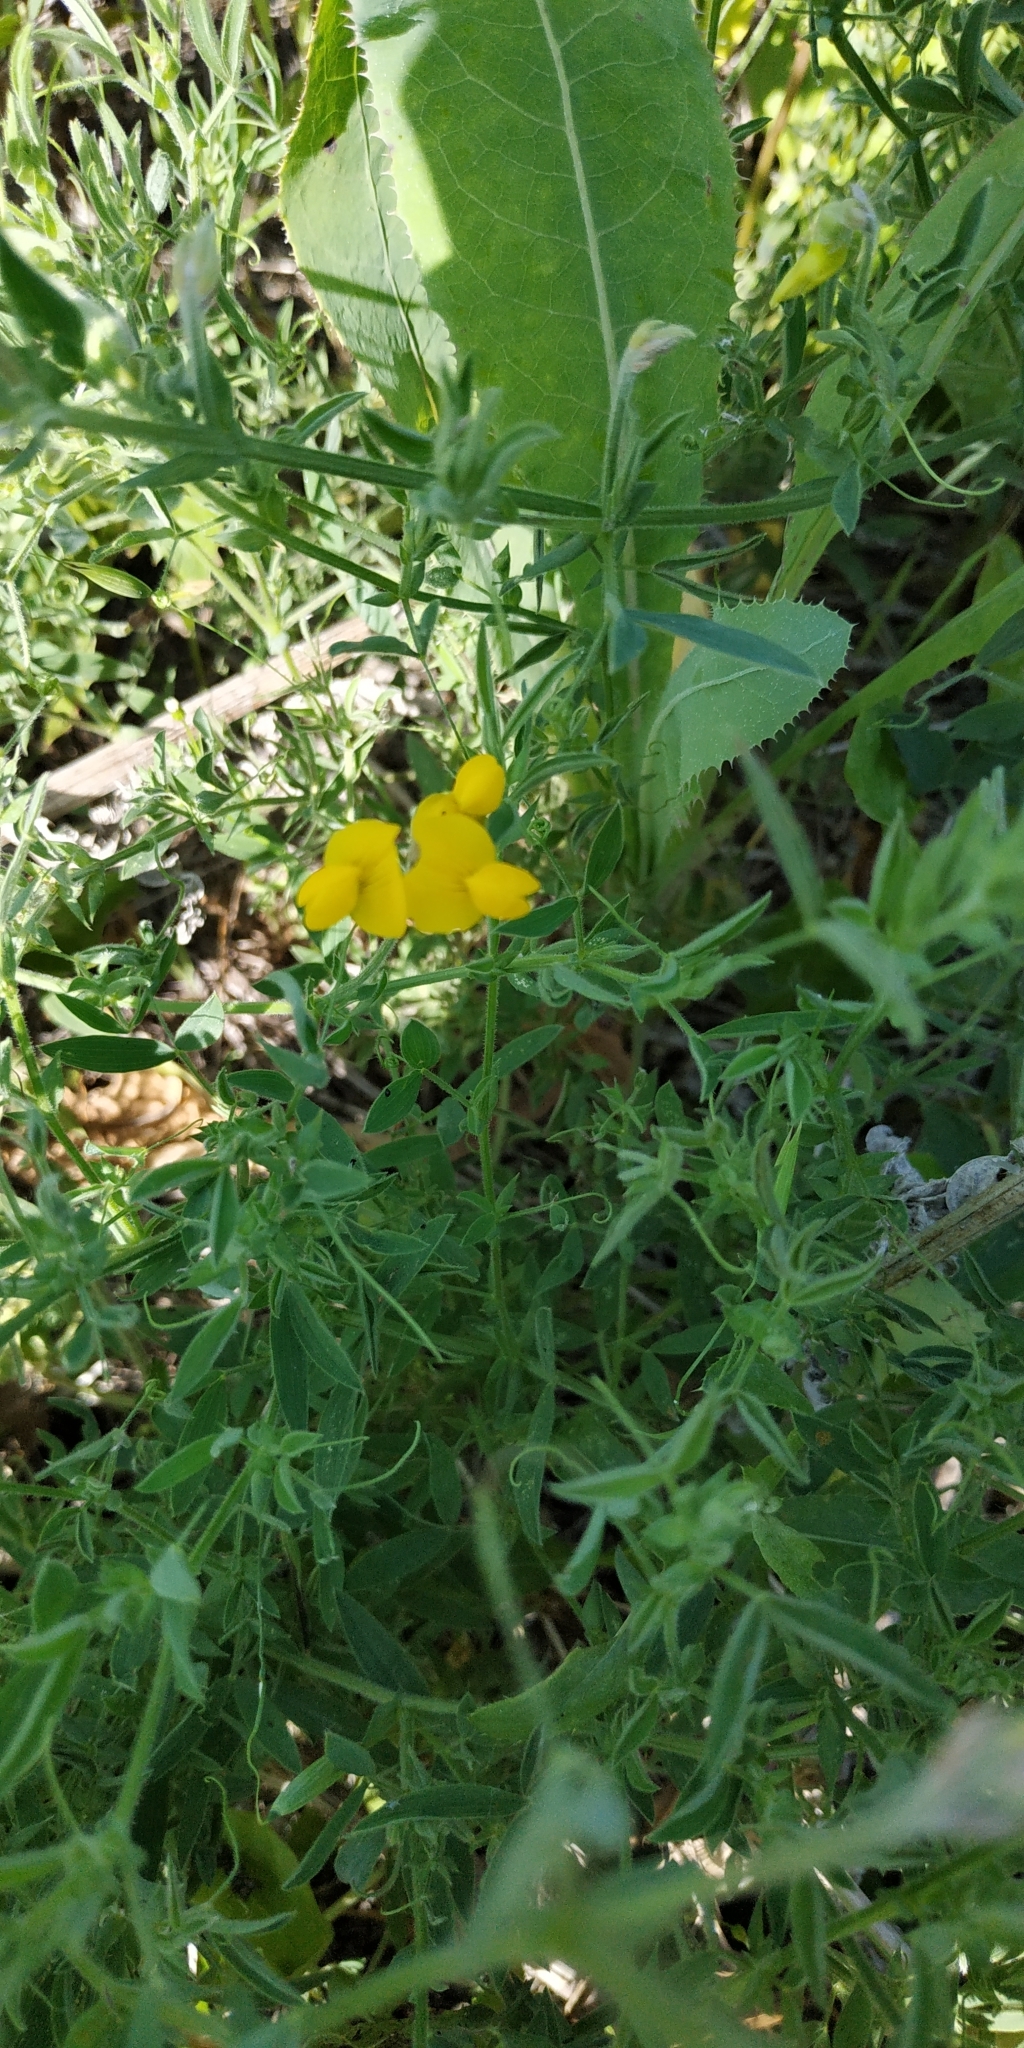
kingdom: Plantae
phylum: Tracheophyta
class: Magnoliopsida
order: Fabales
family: Fabaceae
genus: Lathyrus
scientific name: Lathyrus pratensis
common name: Meadow vetchling
